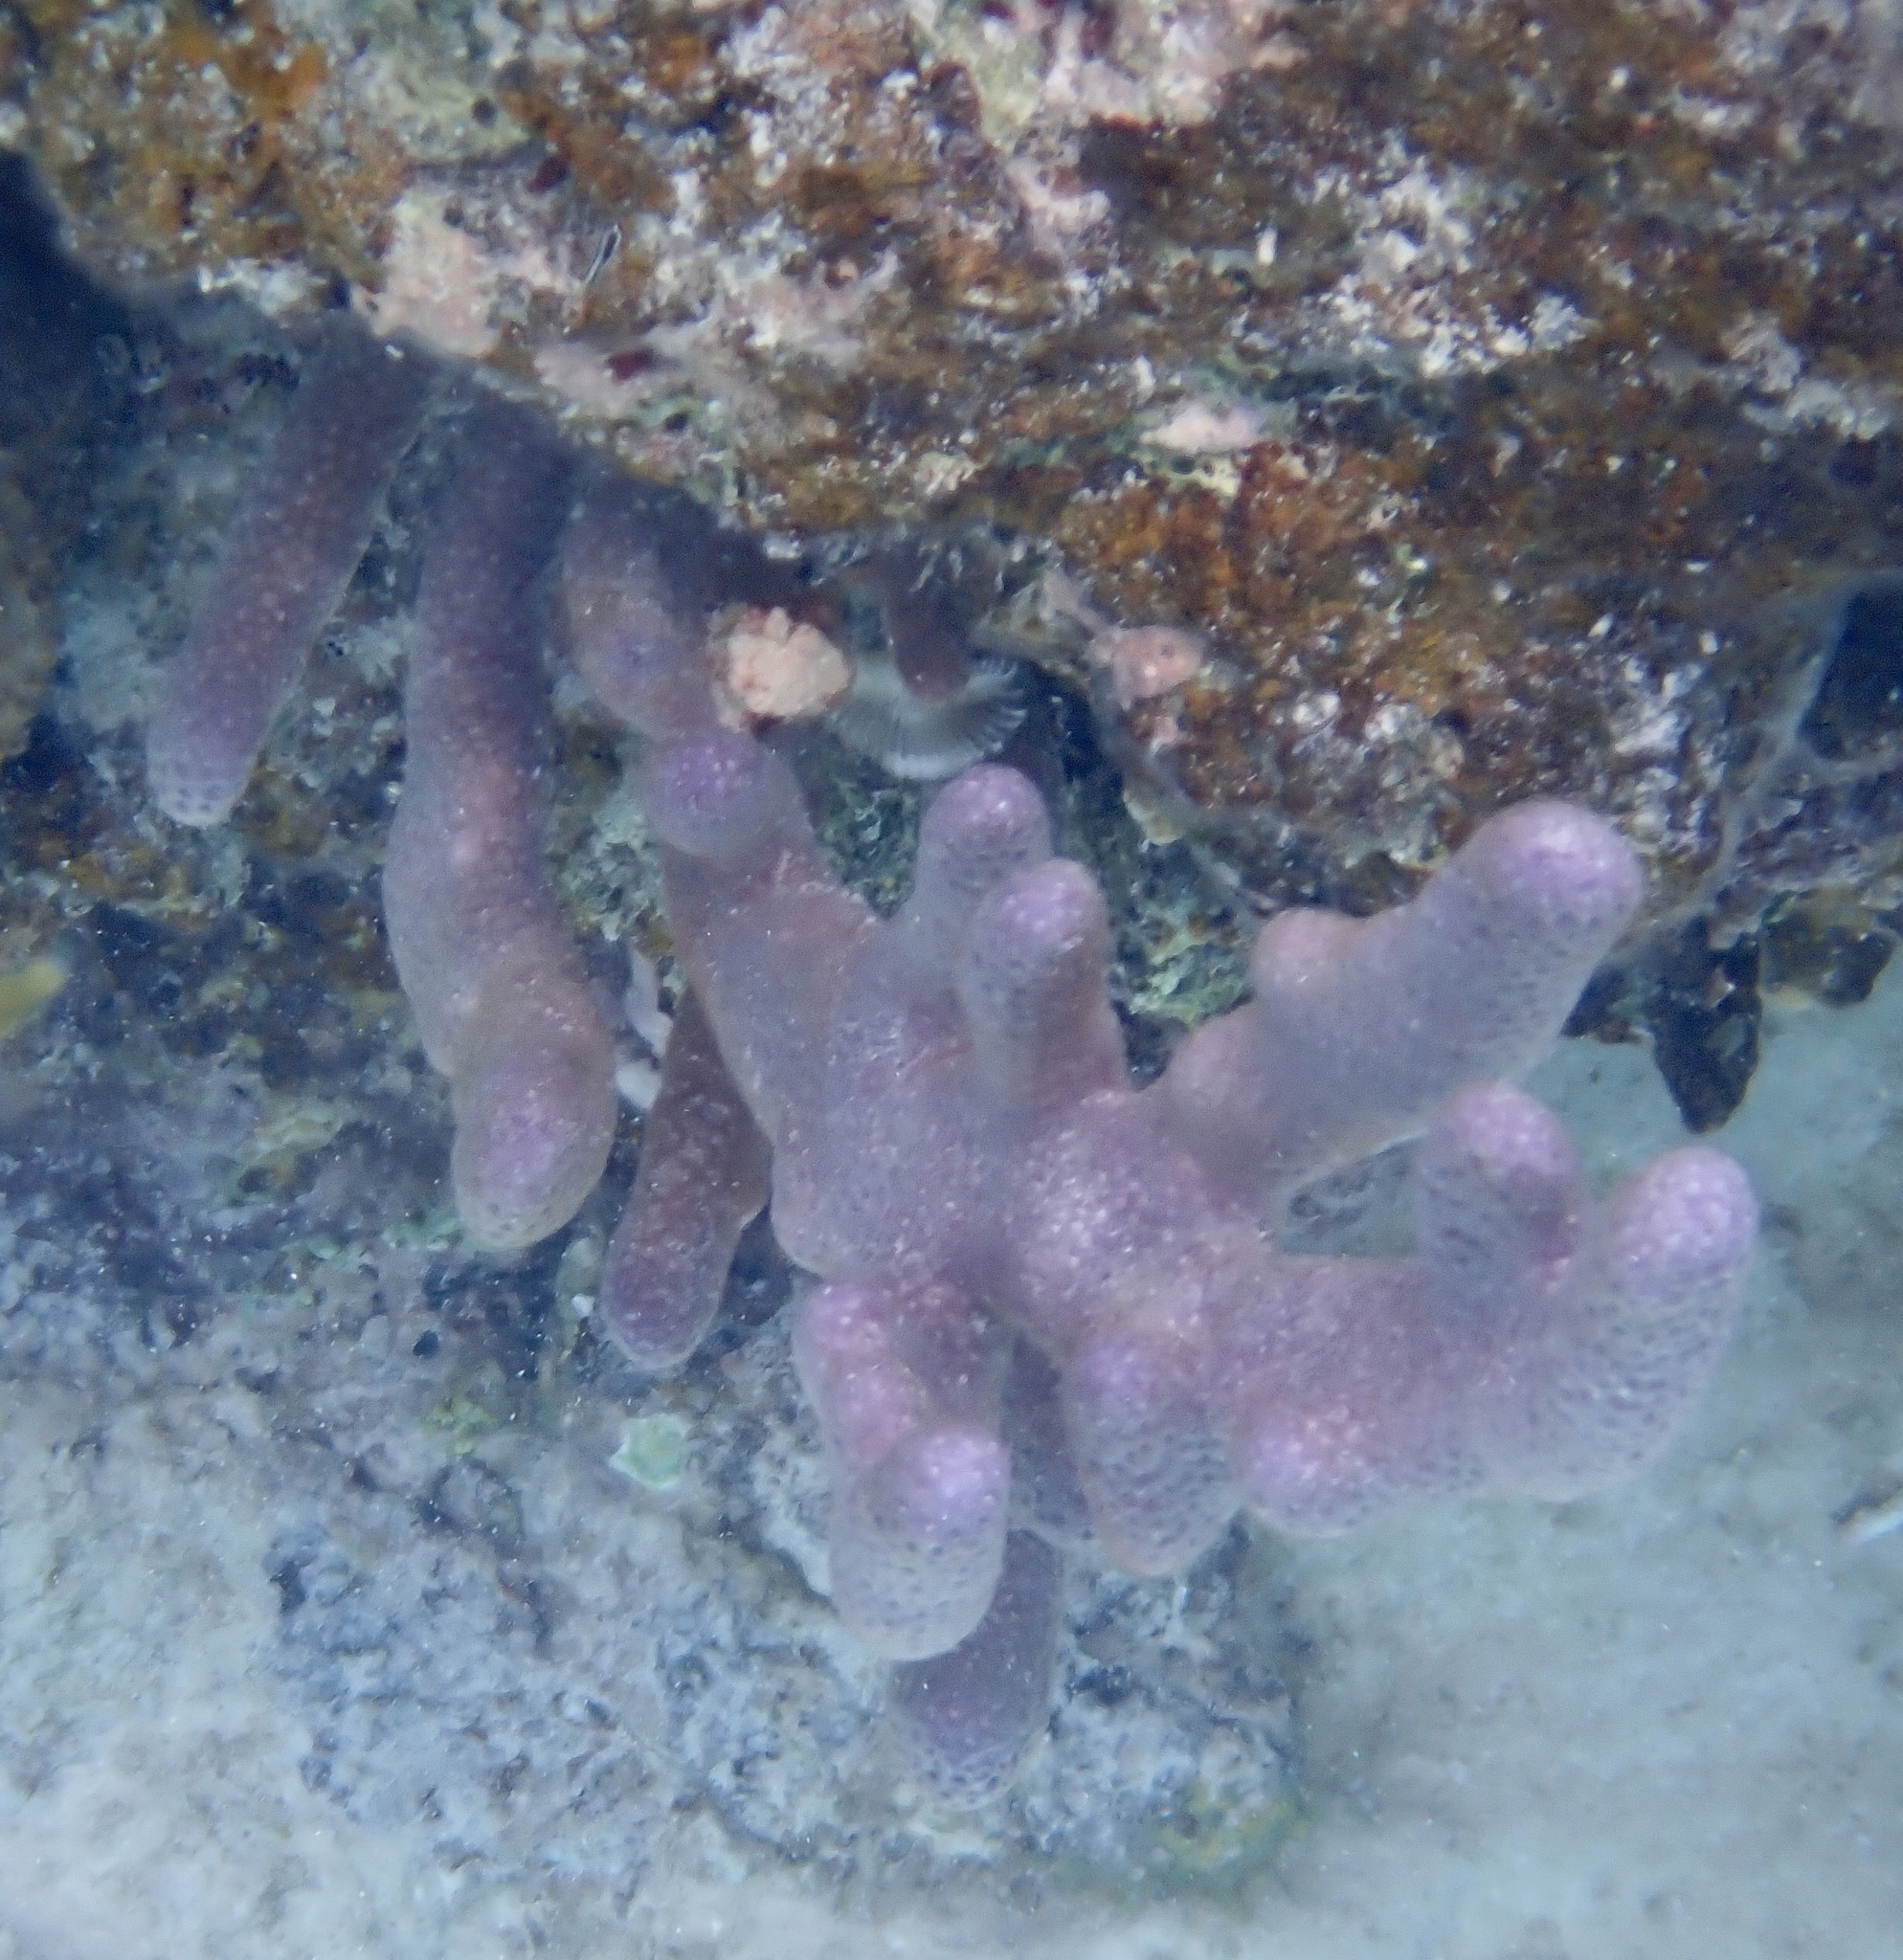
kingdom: Animalia
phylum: Cnidaria
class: Anthozoa
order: Scleralcyonacea
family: Briareidae
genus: Briareum
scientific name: Briareum asbestinum
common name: Corky sea finger
